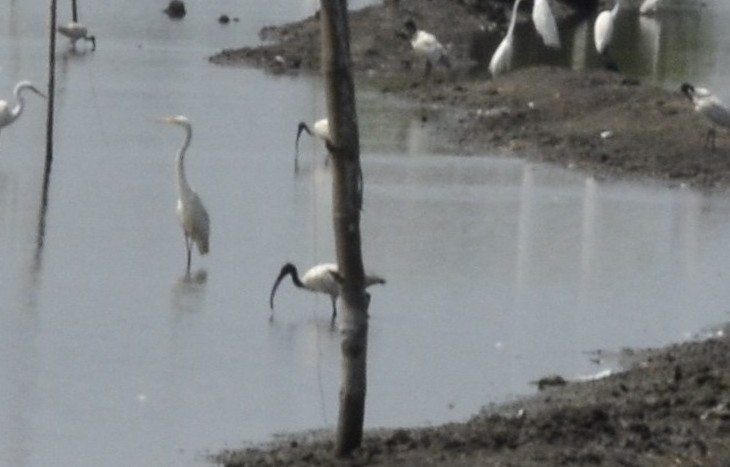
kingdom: Animalia
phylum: Chordata
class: Aves
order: Pelecaniformes
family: Threskiornithidae
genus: Threskiornis
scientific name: Threskiornis melanocephalus
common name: Black-headed ibis
